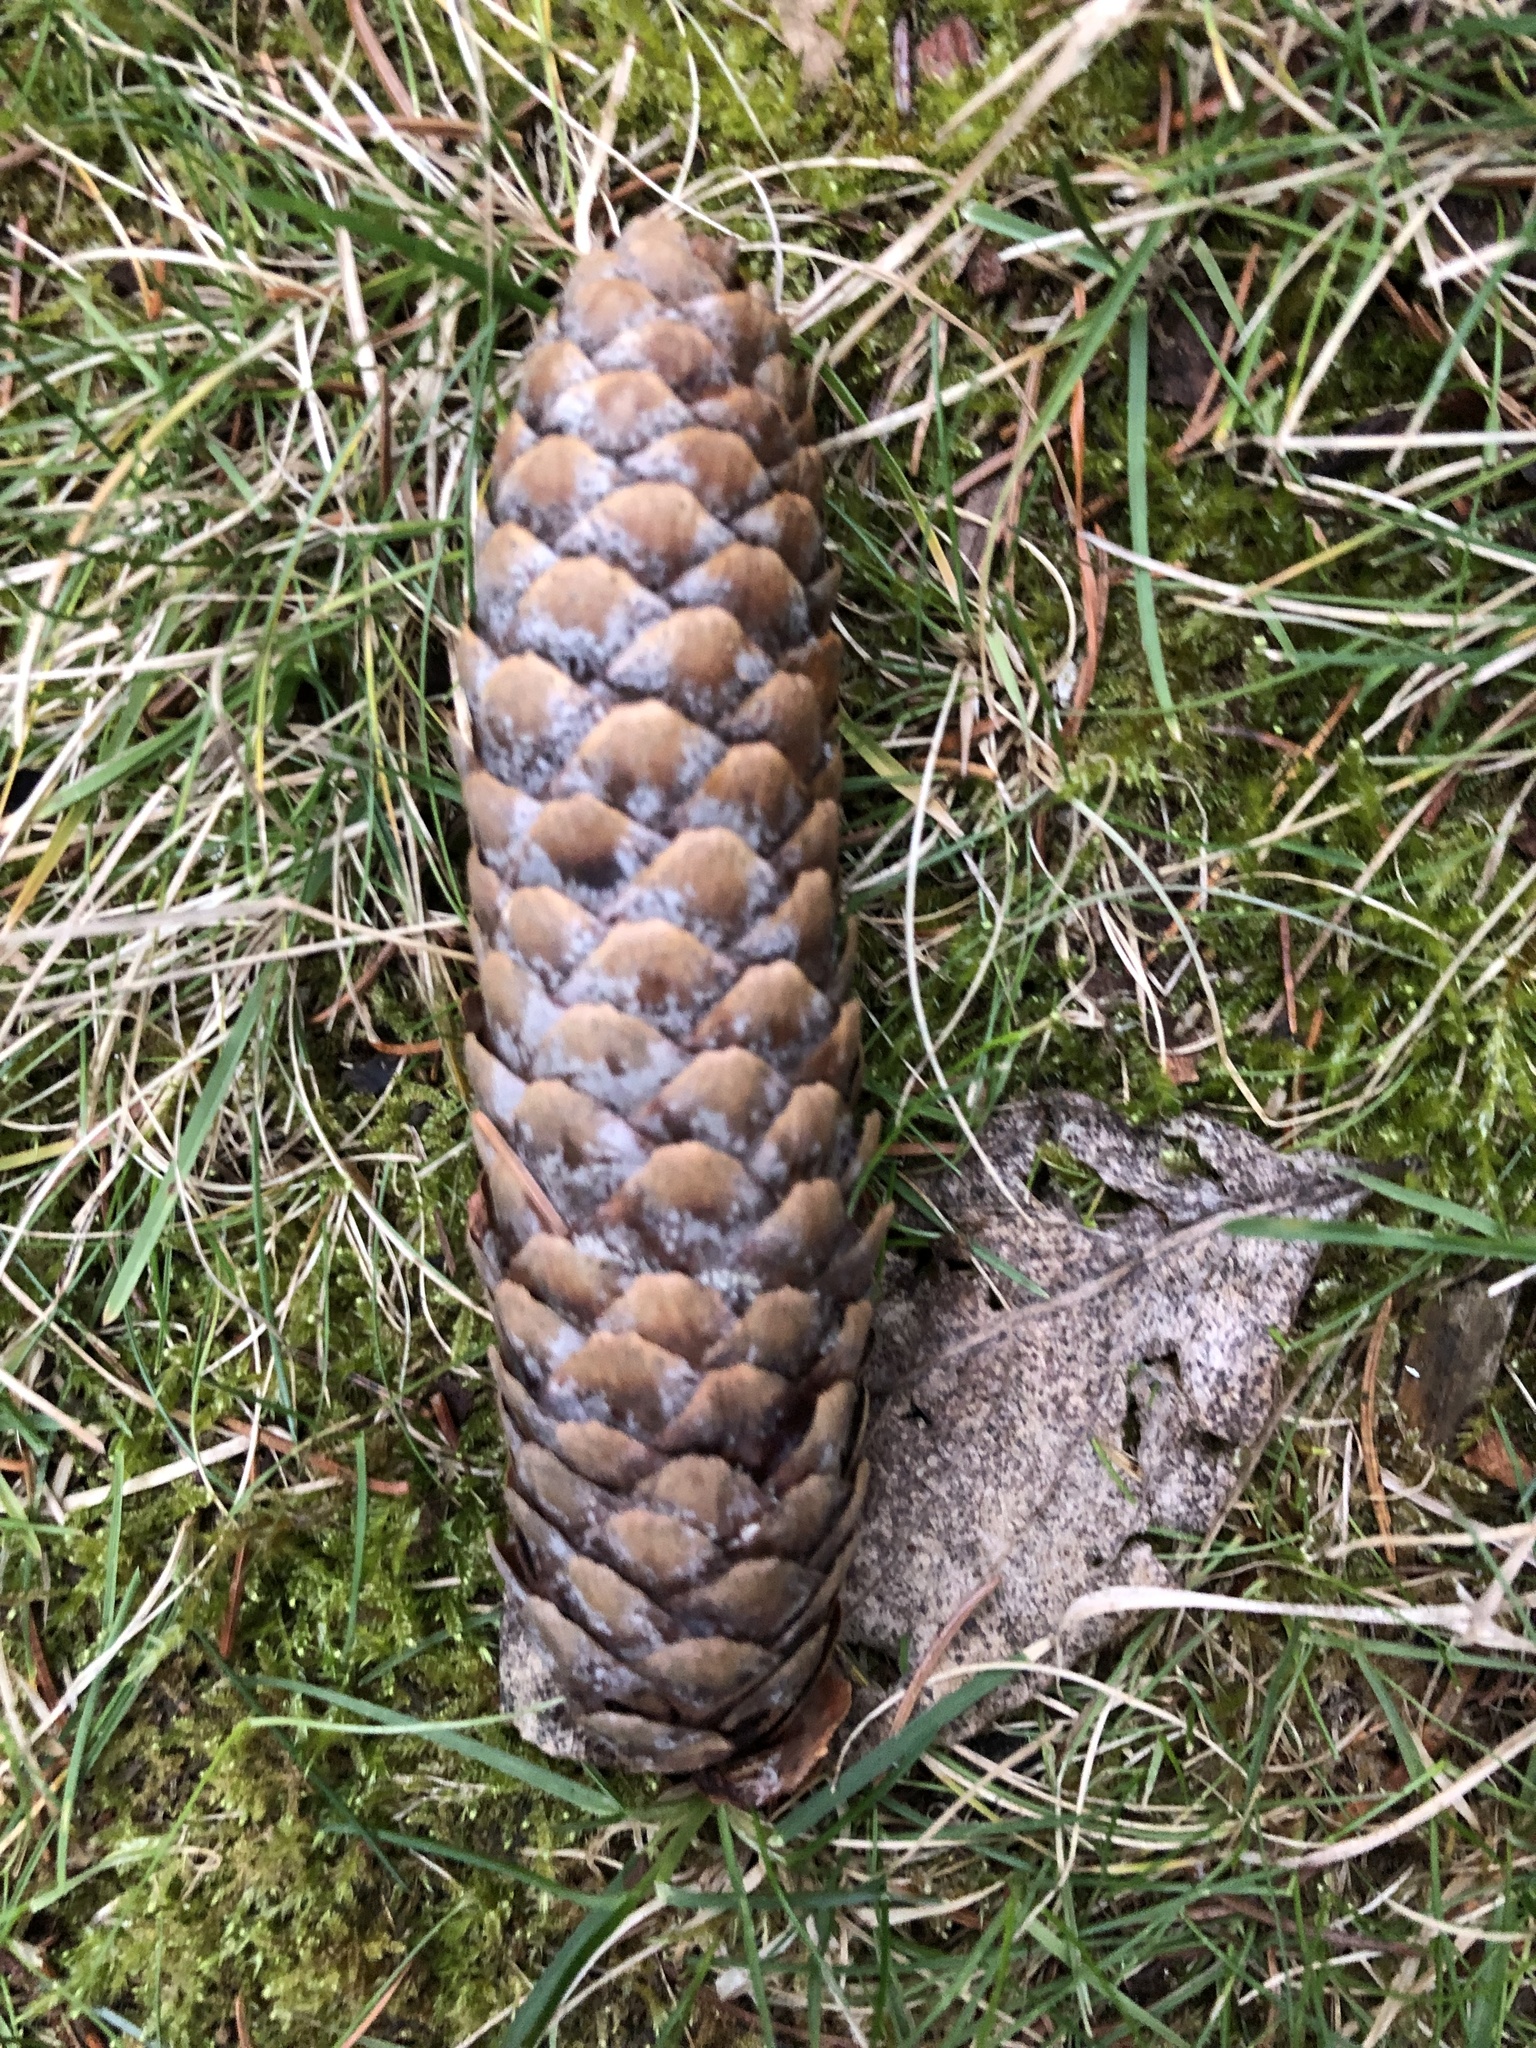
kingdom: Plantae
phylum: Tracheophyta
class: Pinopsida
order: Pinales
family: Pinaceae
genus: Picea
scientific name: Picea abies
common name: Norway spruce
